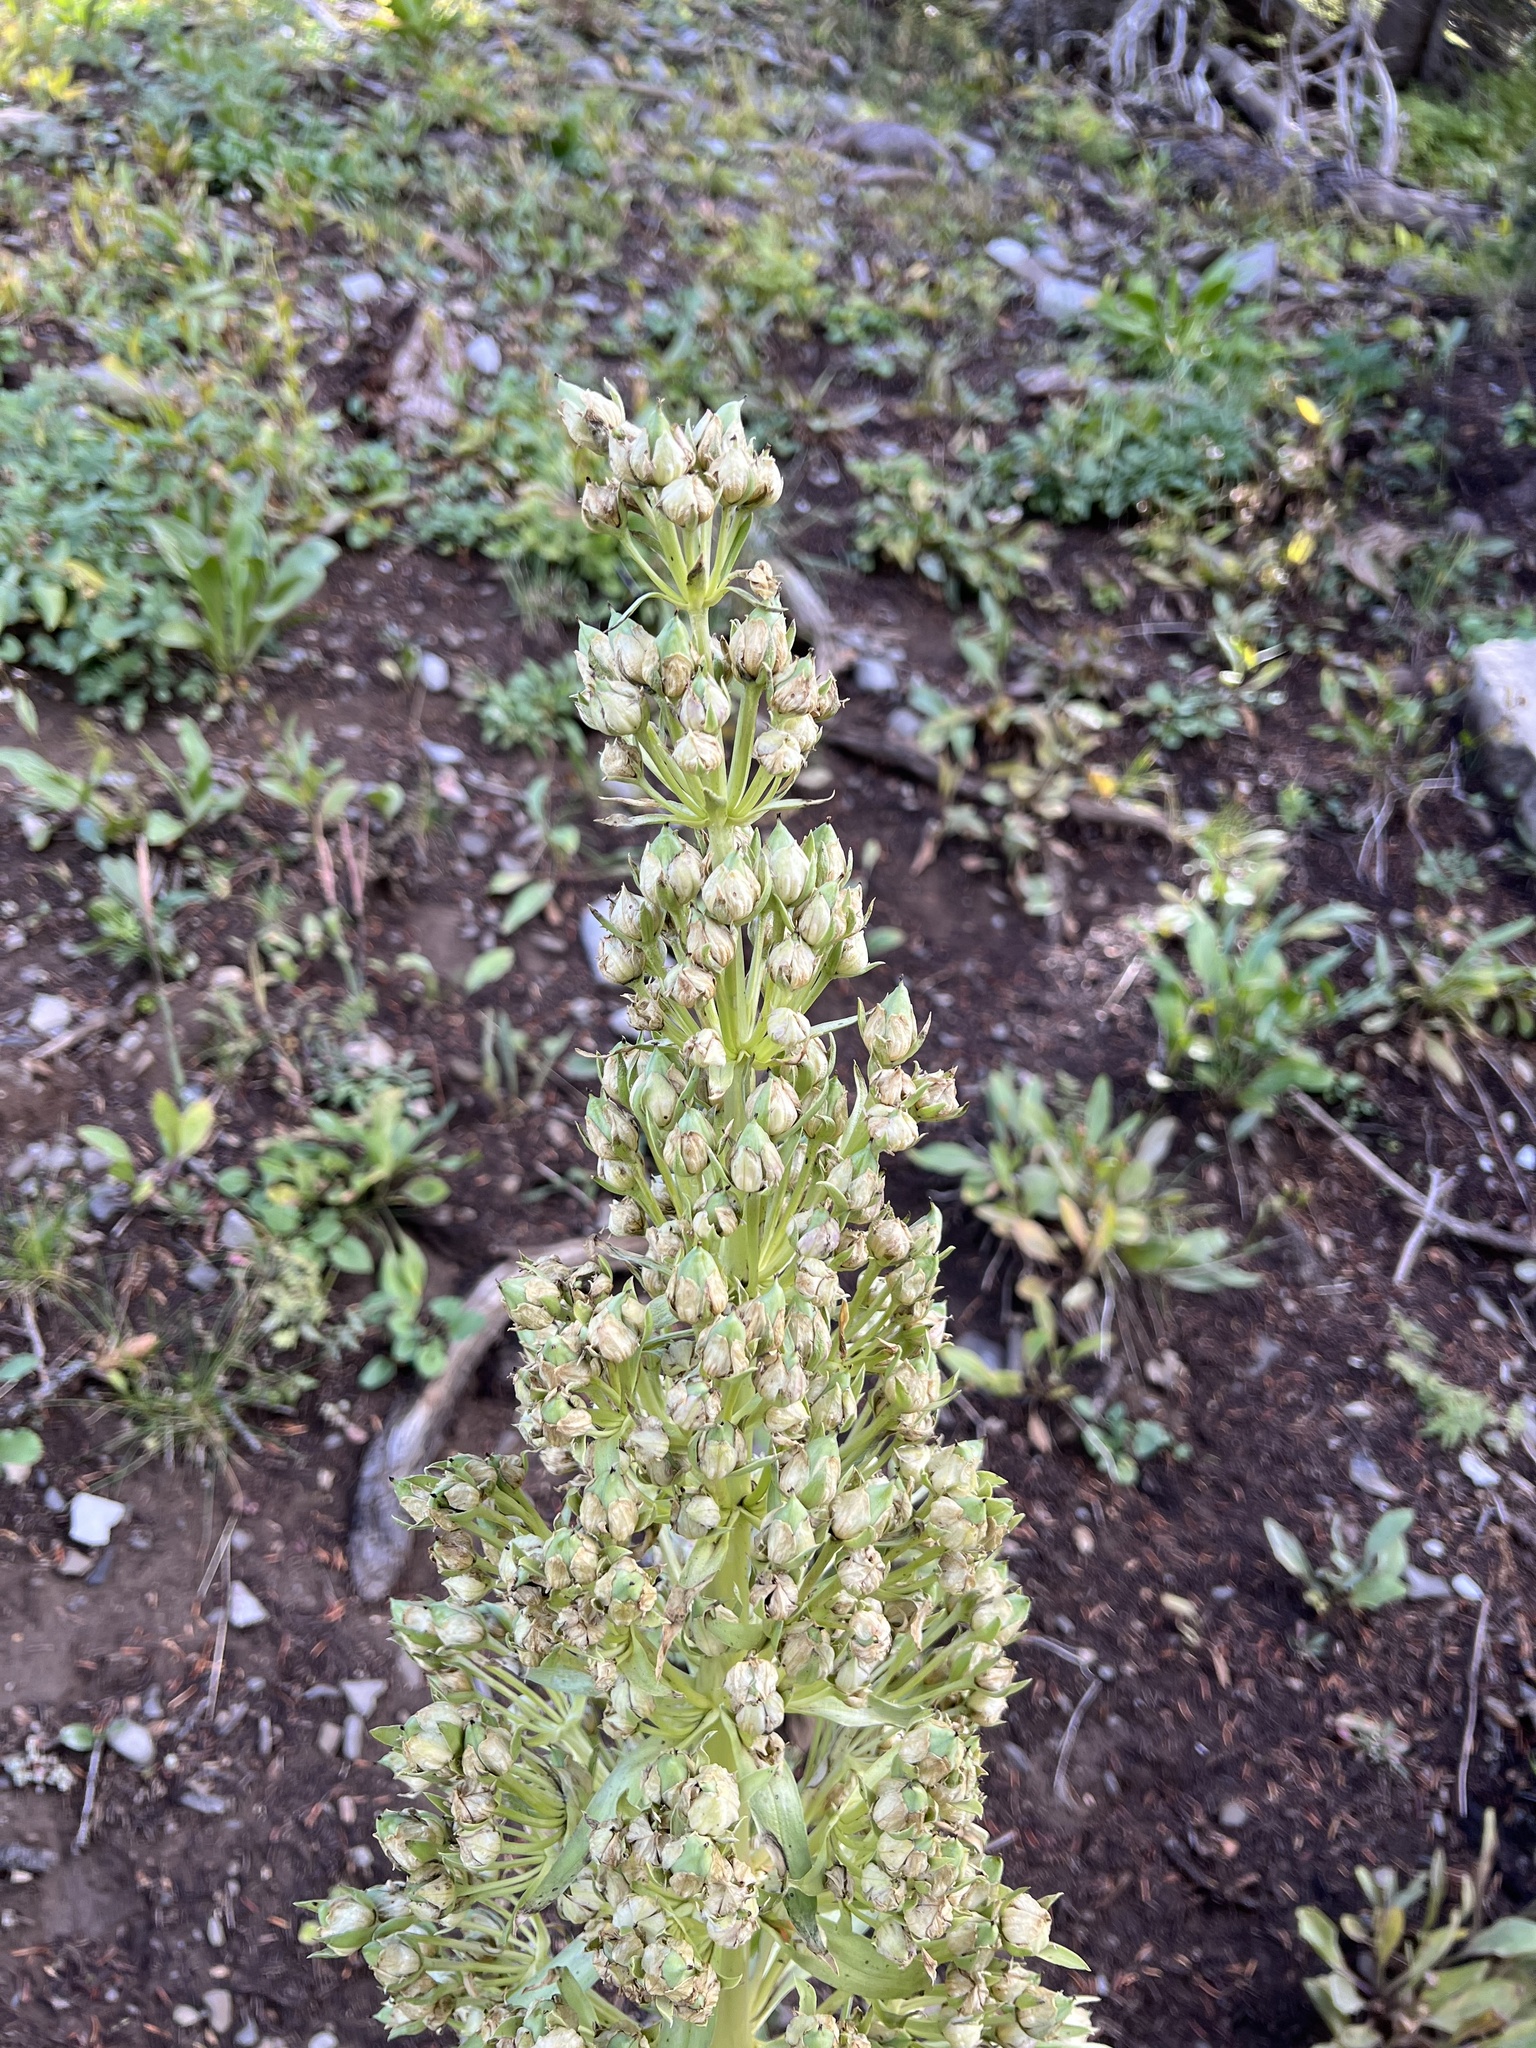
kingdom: Plantae
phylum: Tracheophyta
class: Magnoliopsida
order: Gentianales
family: Gentianaceae
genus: Frasera
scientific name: Frasera speciosa
